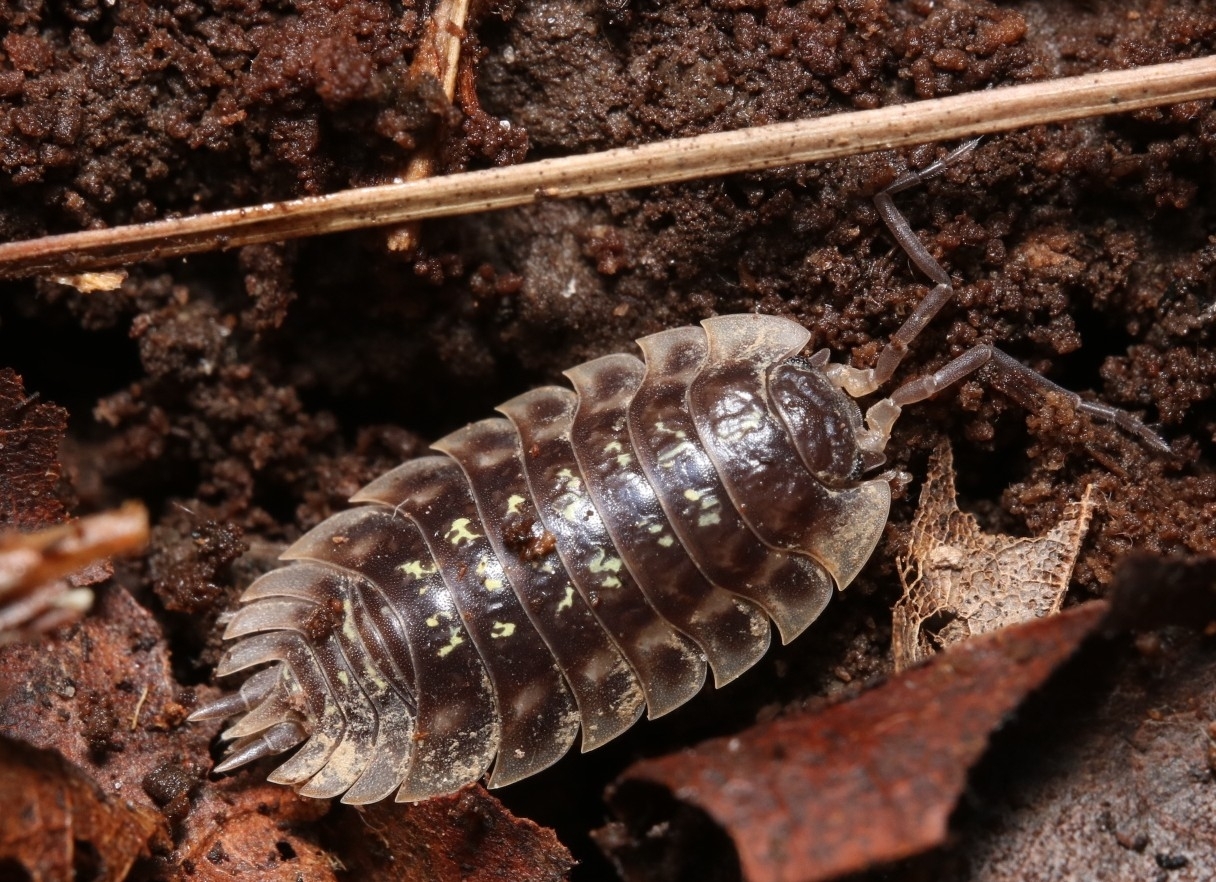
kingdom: Animalia
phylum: Arthropoda
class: Malacostraca
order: Isopoda
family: Oniscidae
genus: Oniscus
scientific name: Oniscus asellus
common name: Common shiny woodlouse
